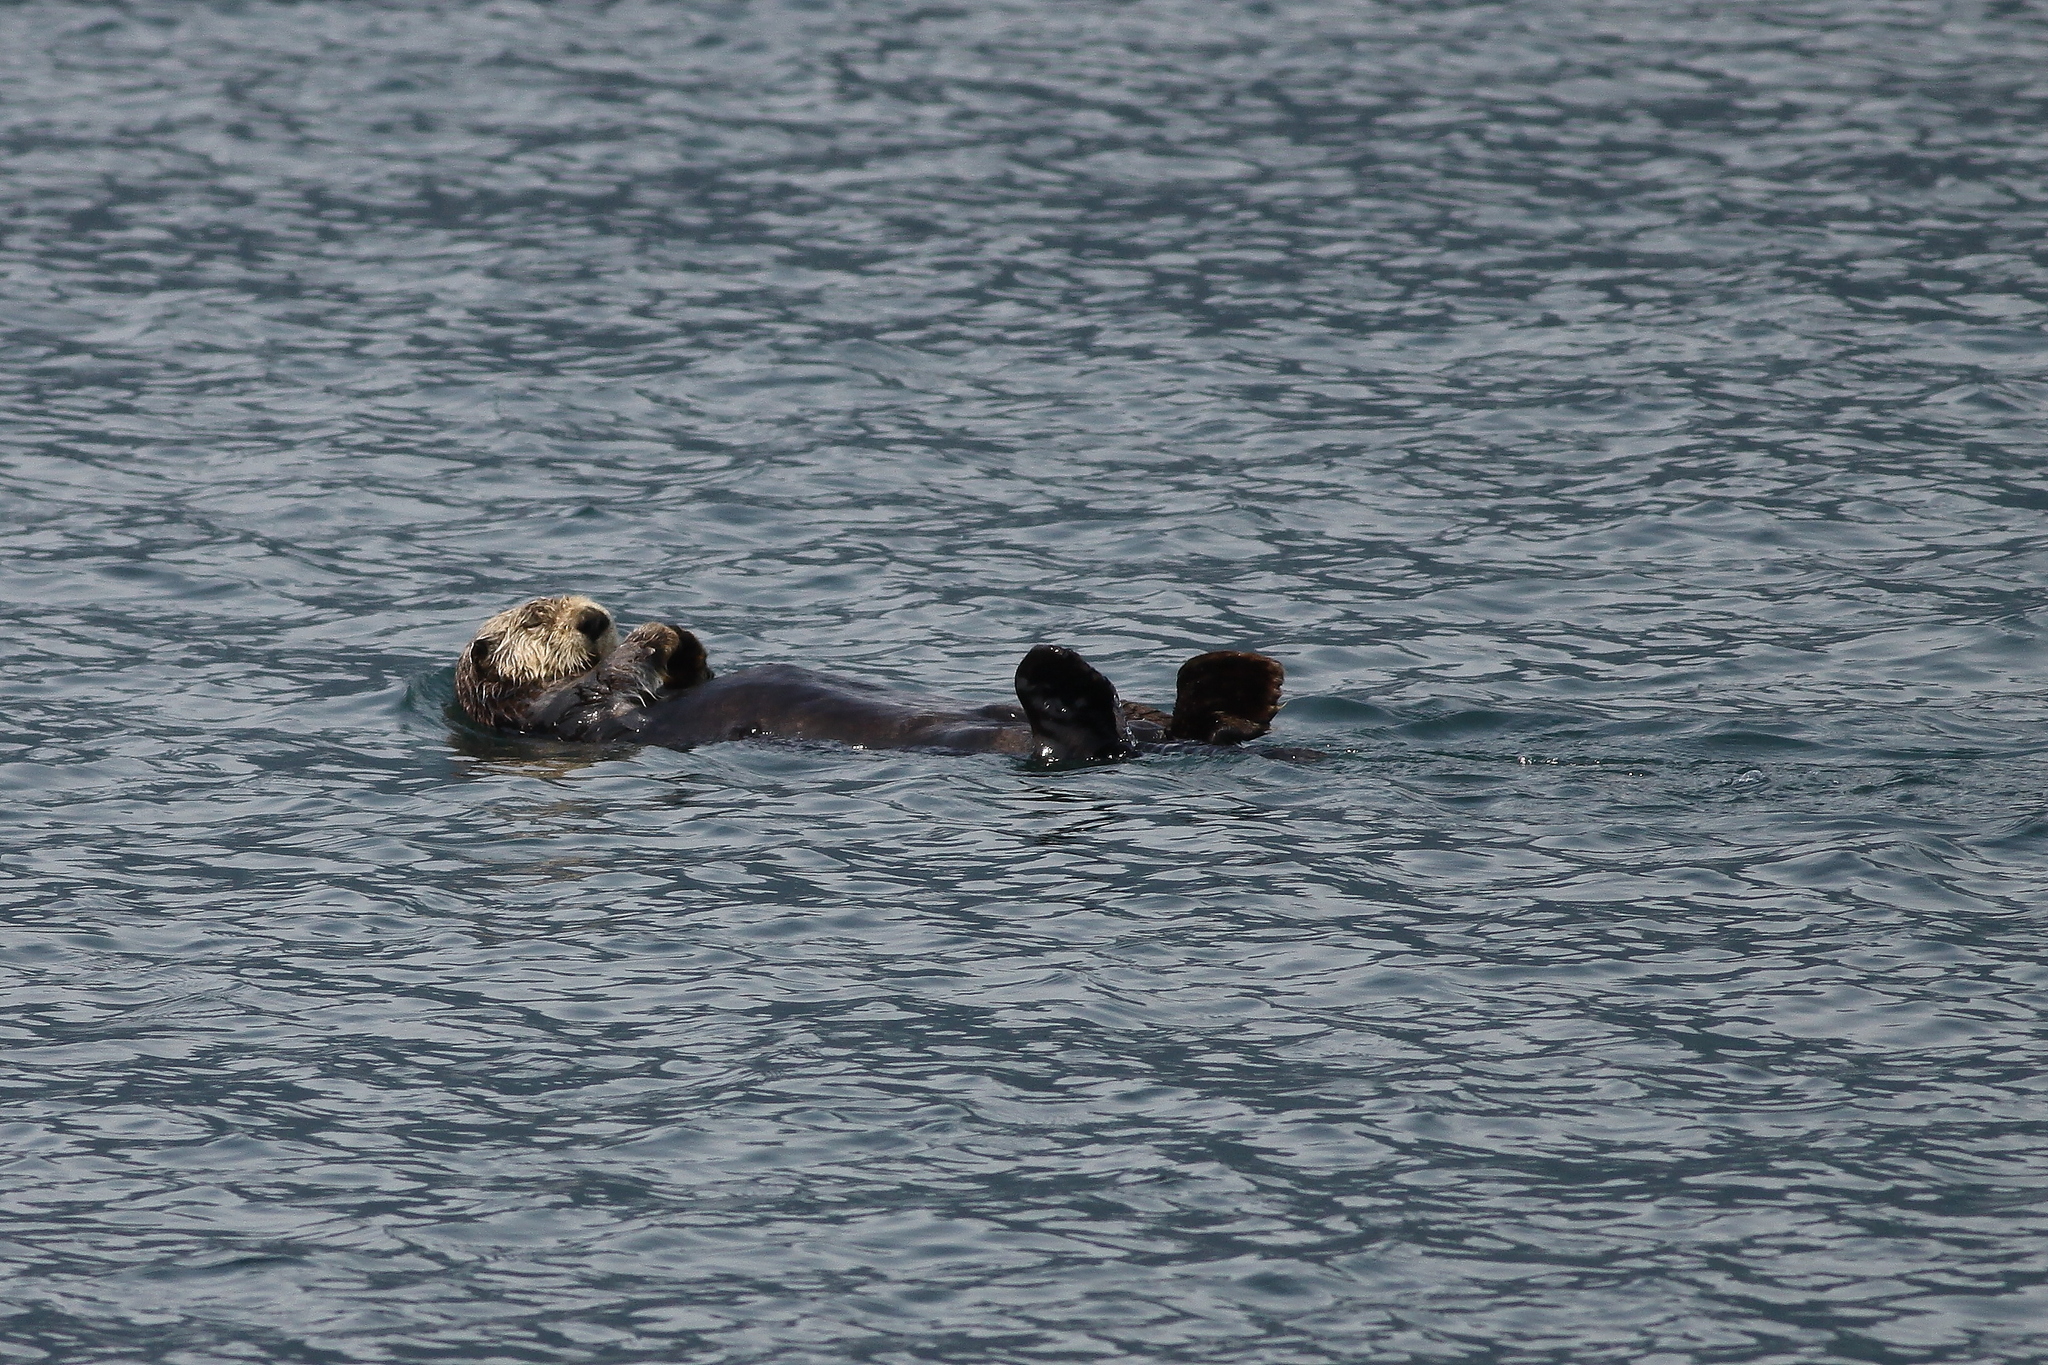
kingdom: Animalia
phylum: Chordata
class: Mammalia
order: Carnivora
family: Mustelidae
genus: Enhydra
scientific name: Enhydra lutris
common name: Sea otter
